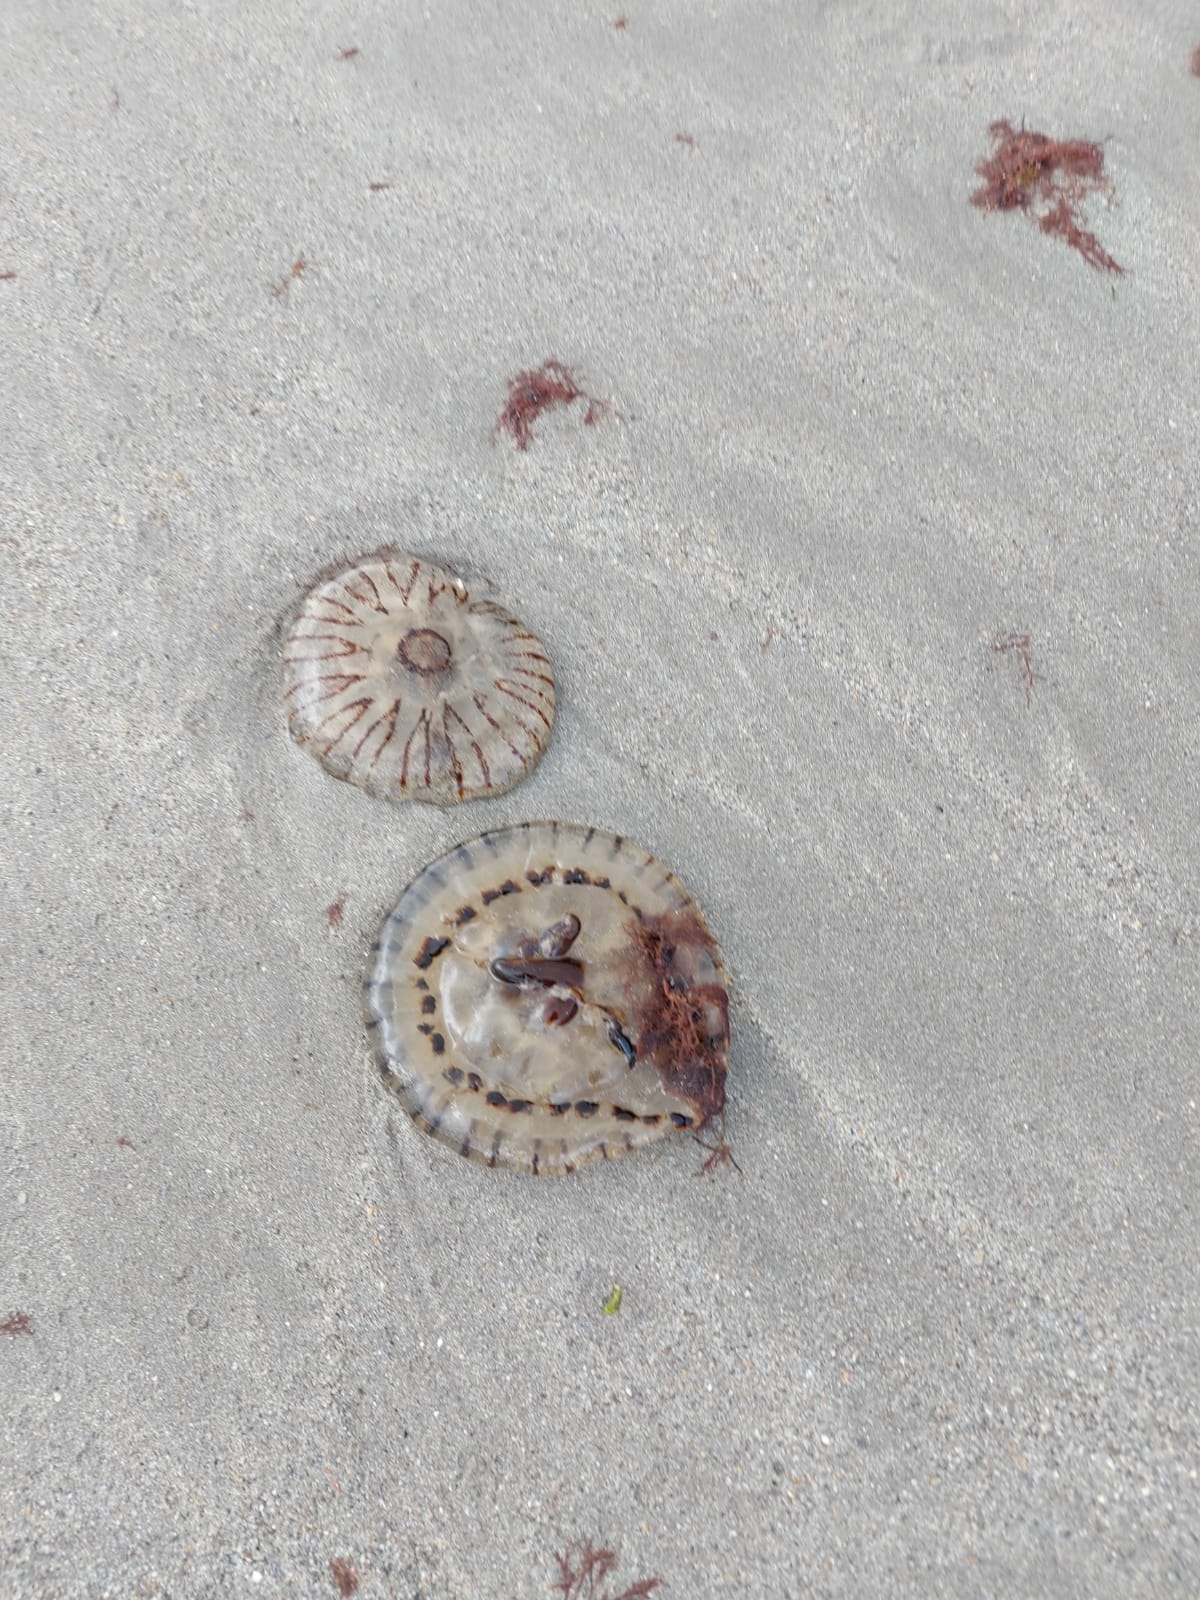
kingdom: Animalia
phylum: Cnidaria
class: Scyphozoa
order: Semaeostomeae
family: Pelagiidae
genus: Chrysaora
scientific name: Chrysaora hysoscella
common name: Compass jellyfish
